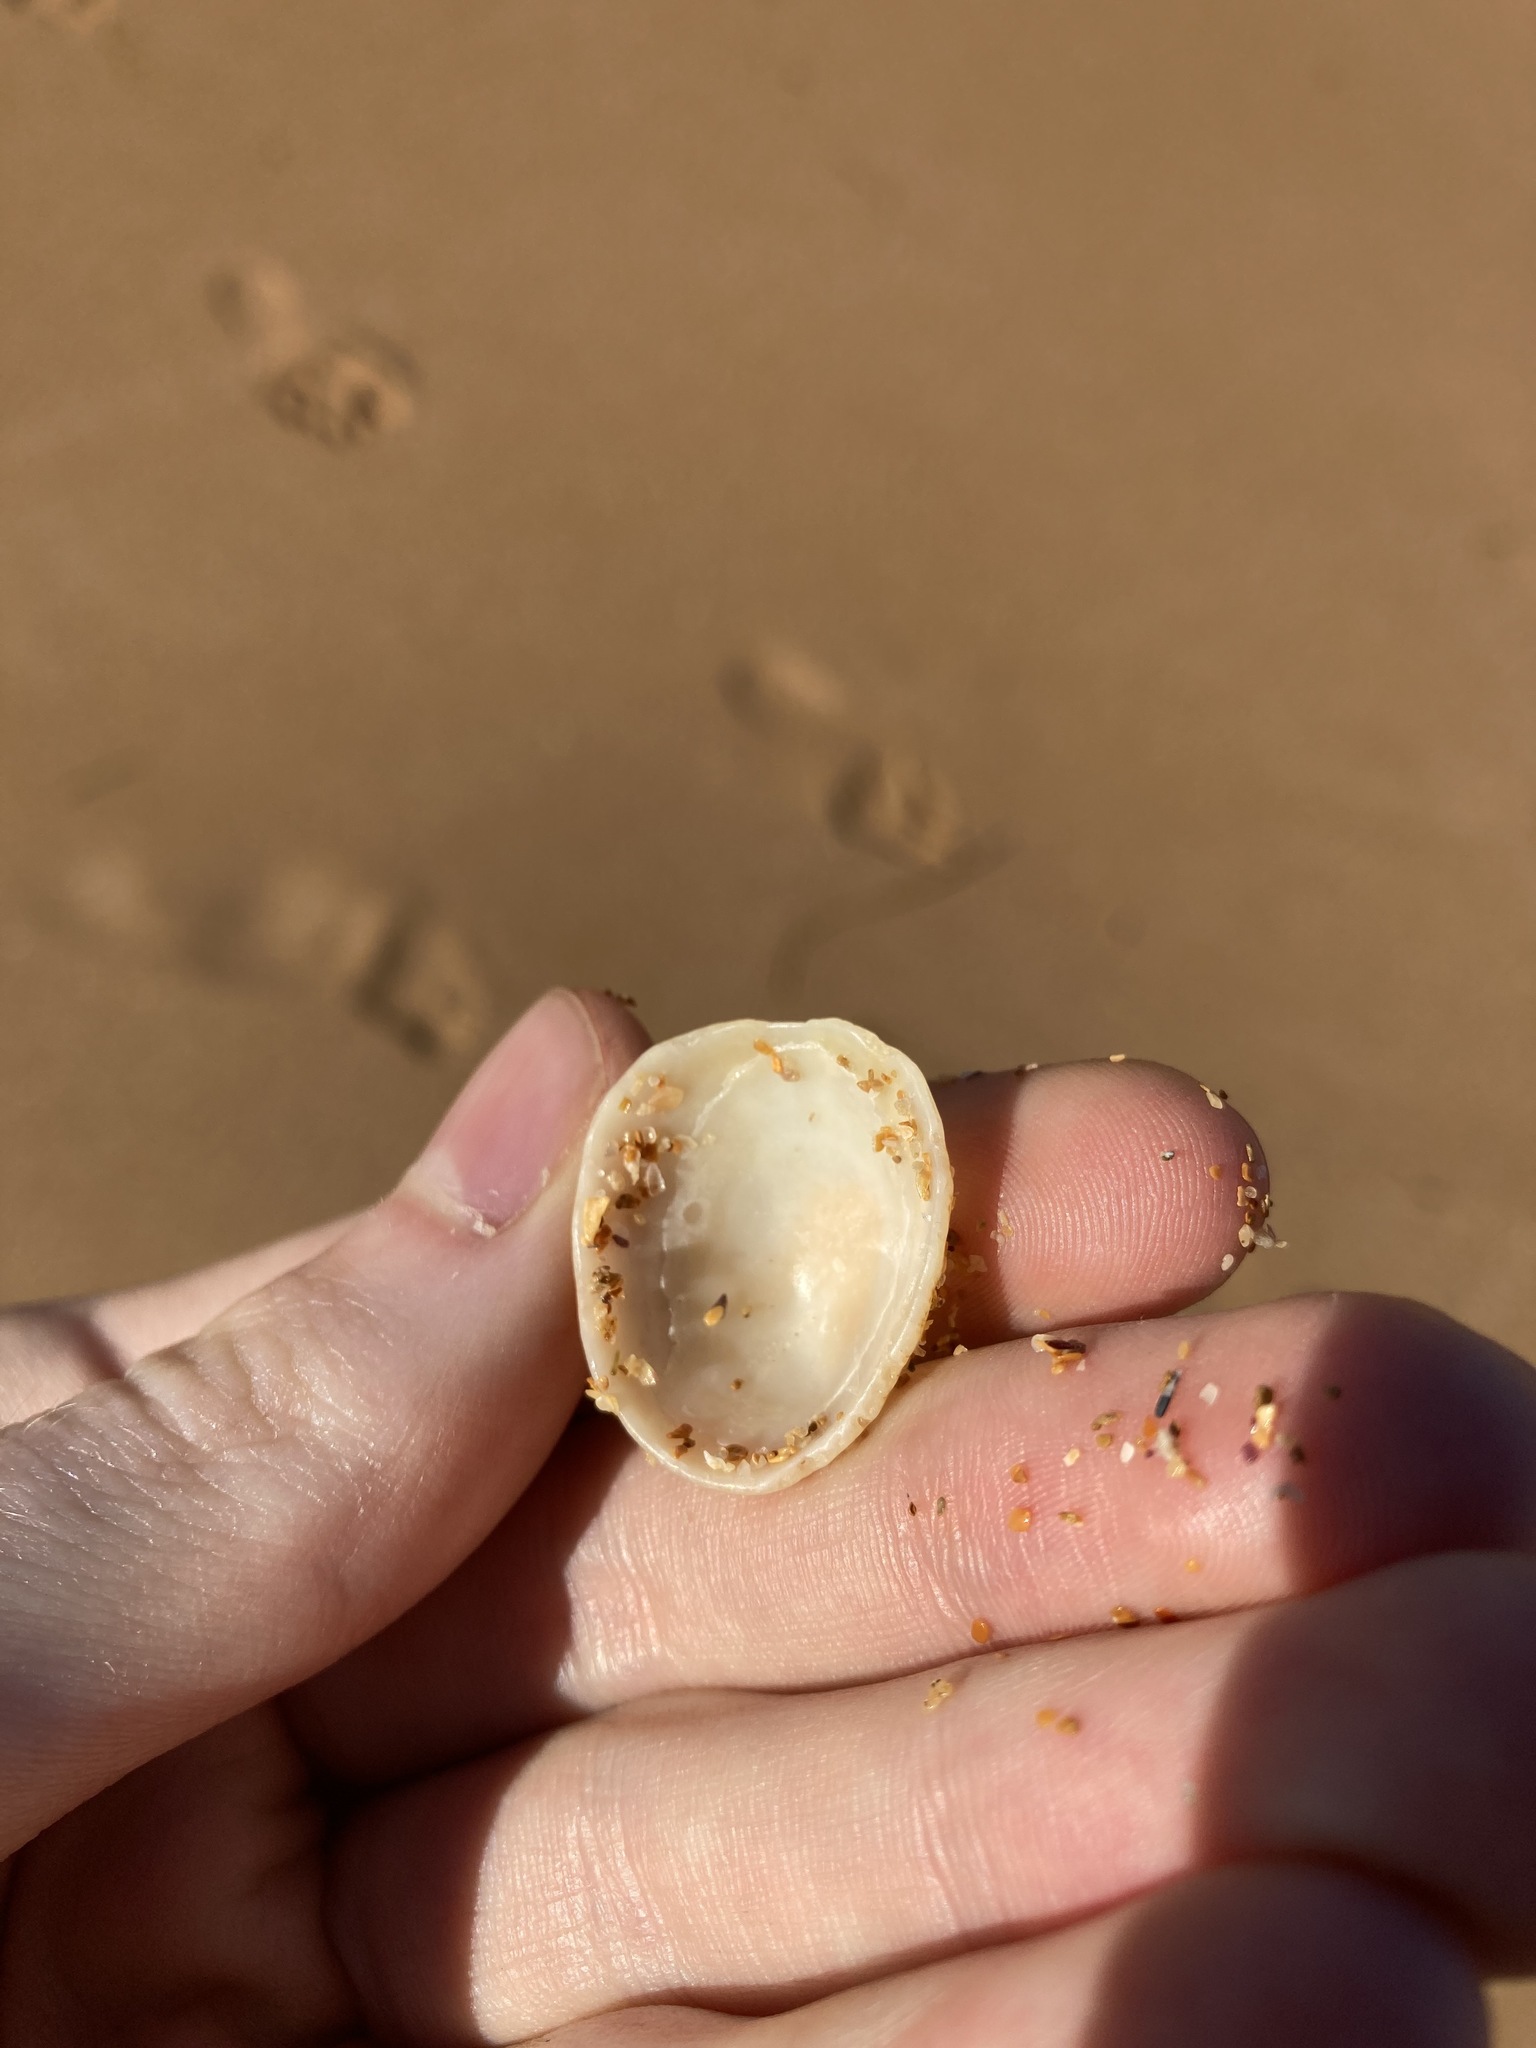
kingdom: Animalia
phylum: Mollusca
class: Gastropoda
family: Patellidae
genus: Scutellastra
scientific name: Scutellastra peronii
